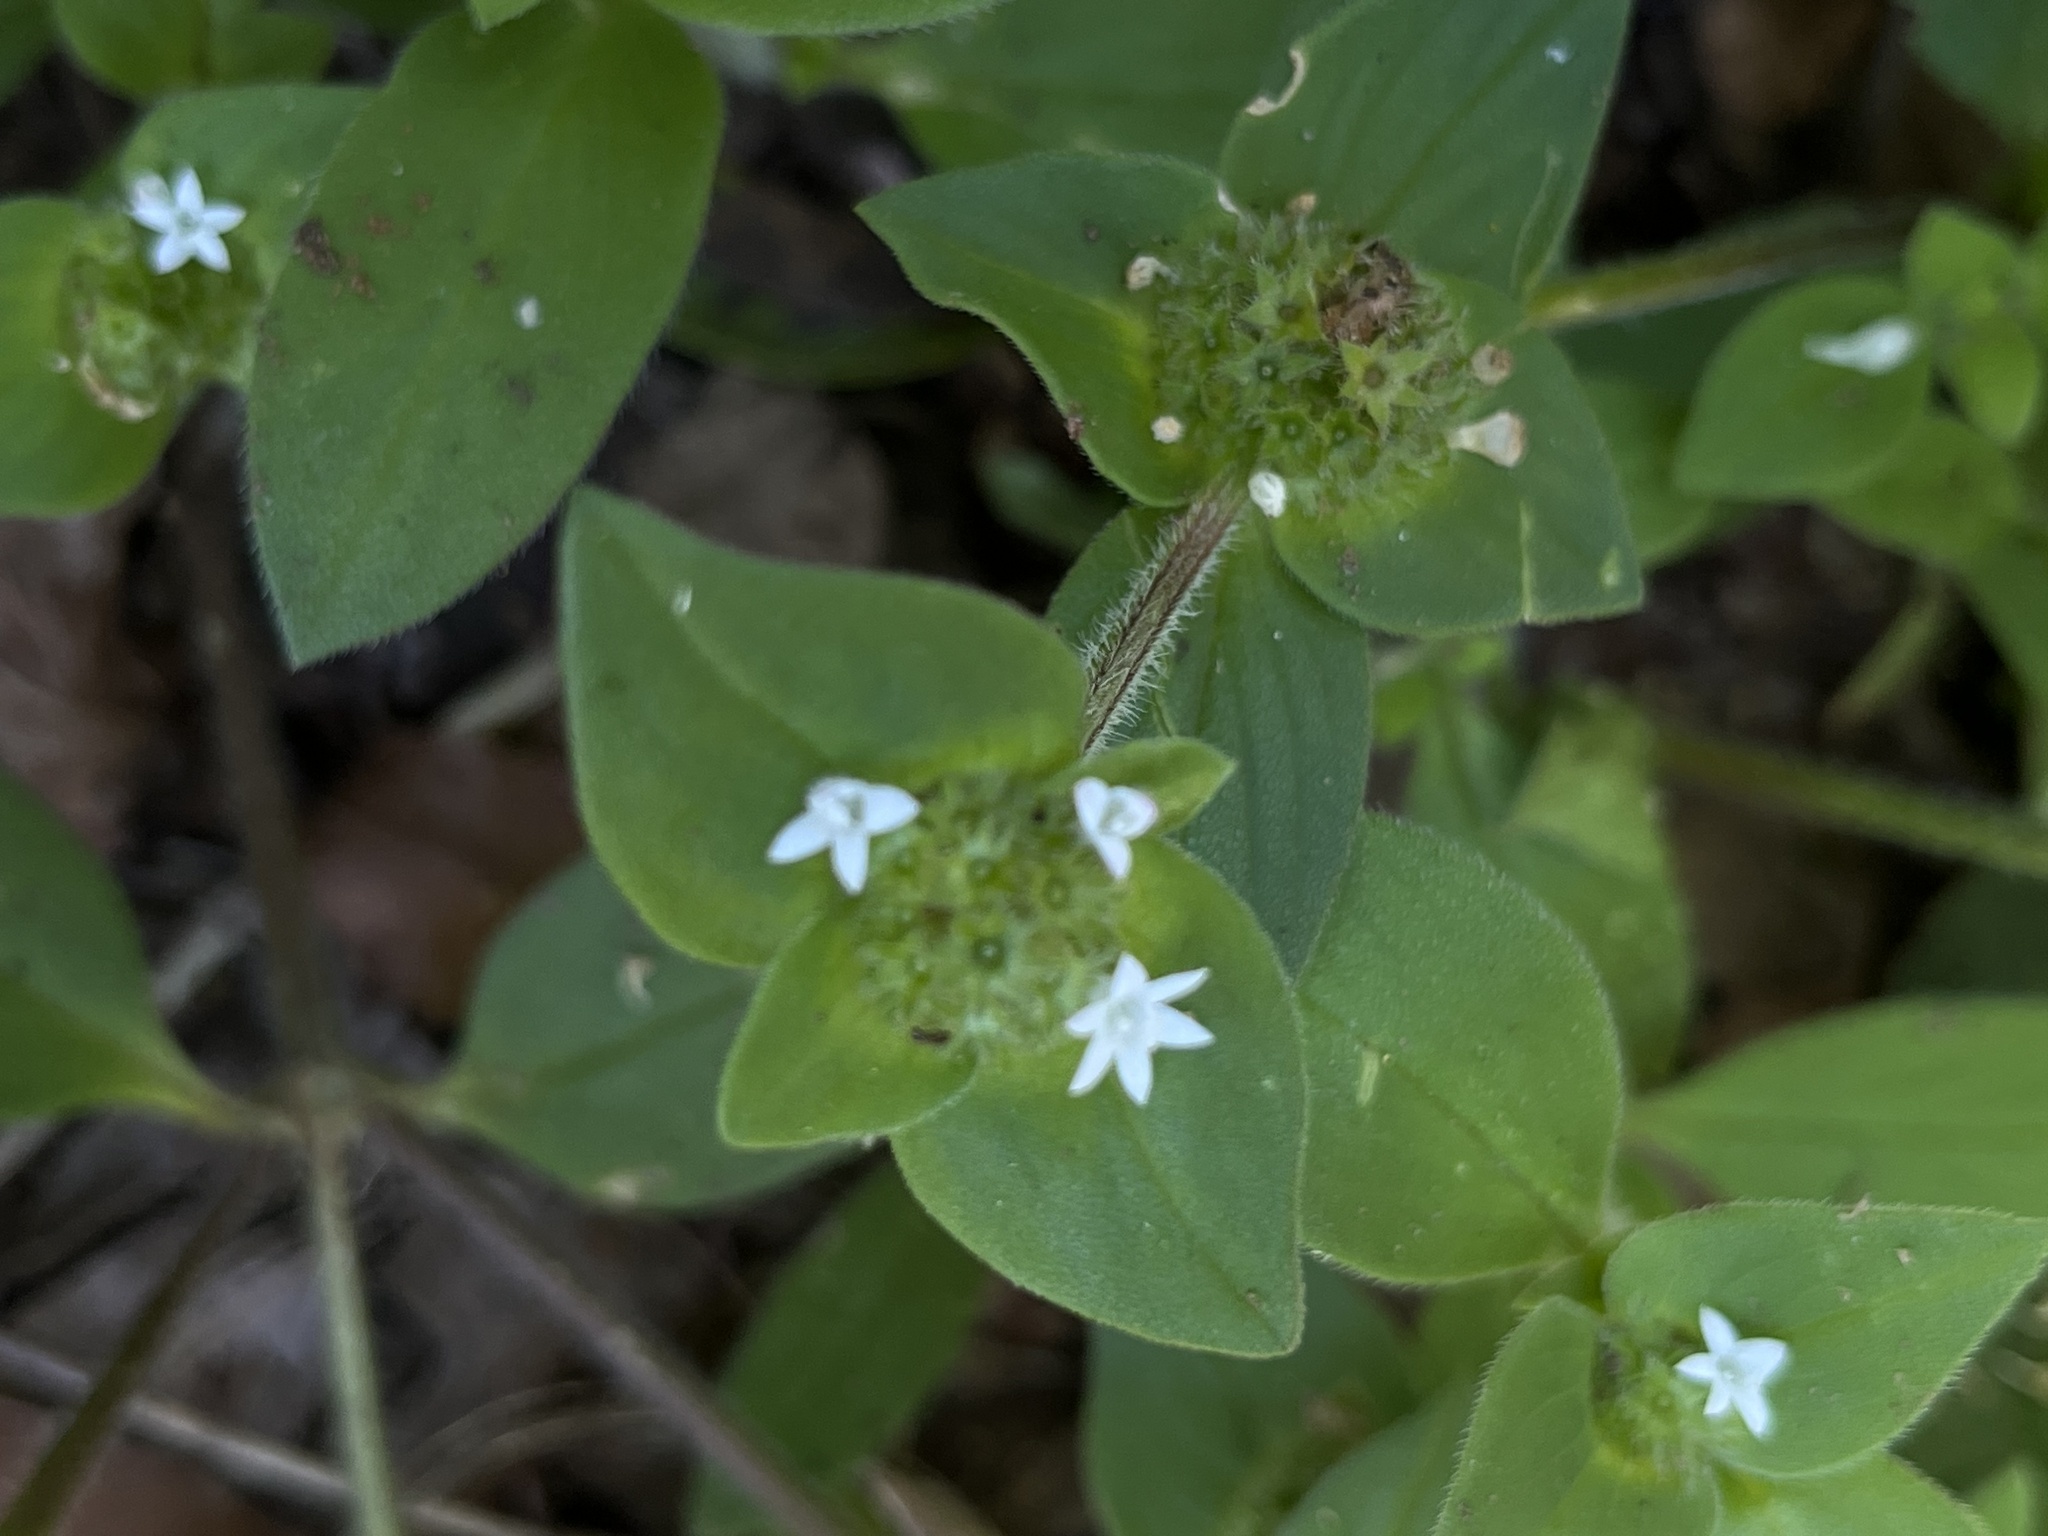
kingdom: Plantae
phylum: Tracheophyta
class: Magnoliopsida
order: Gentianales
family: Rubiaceae
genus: Richardia
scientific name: Richardia brasiliensis
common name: Tropical mexican clover
